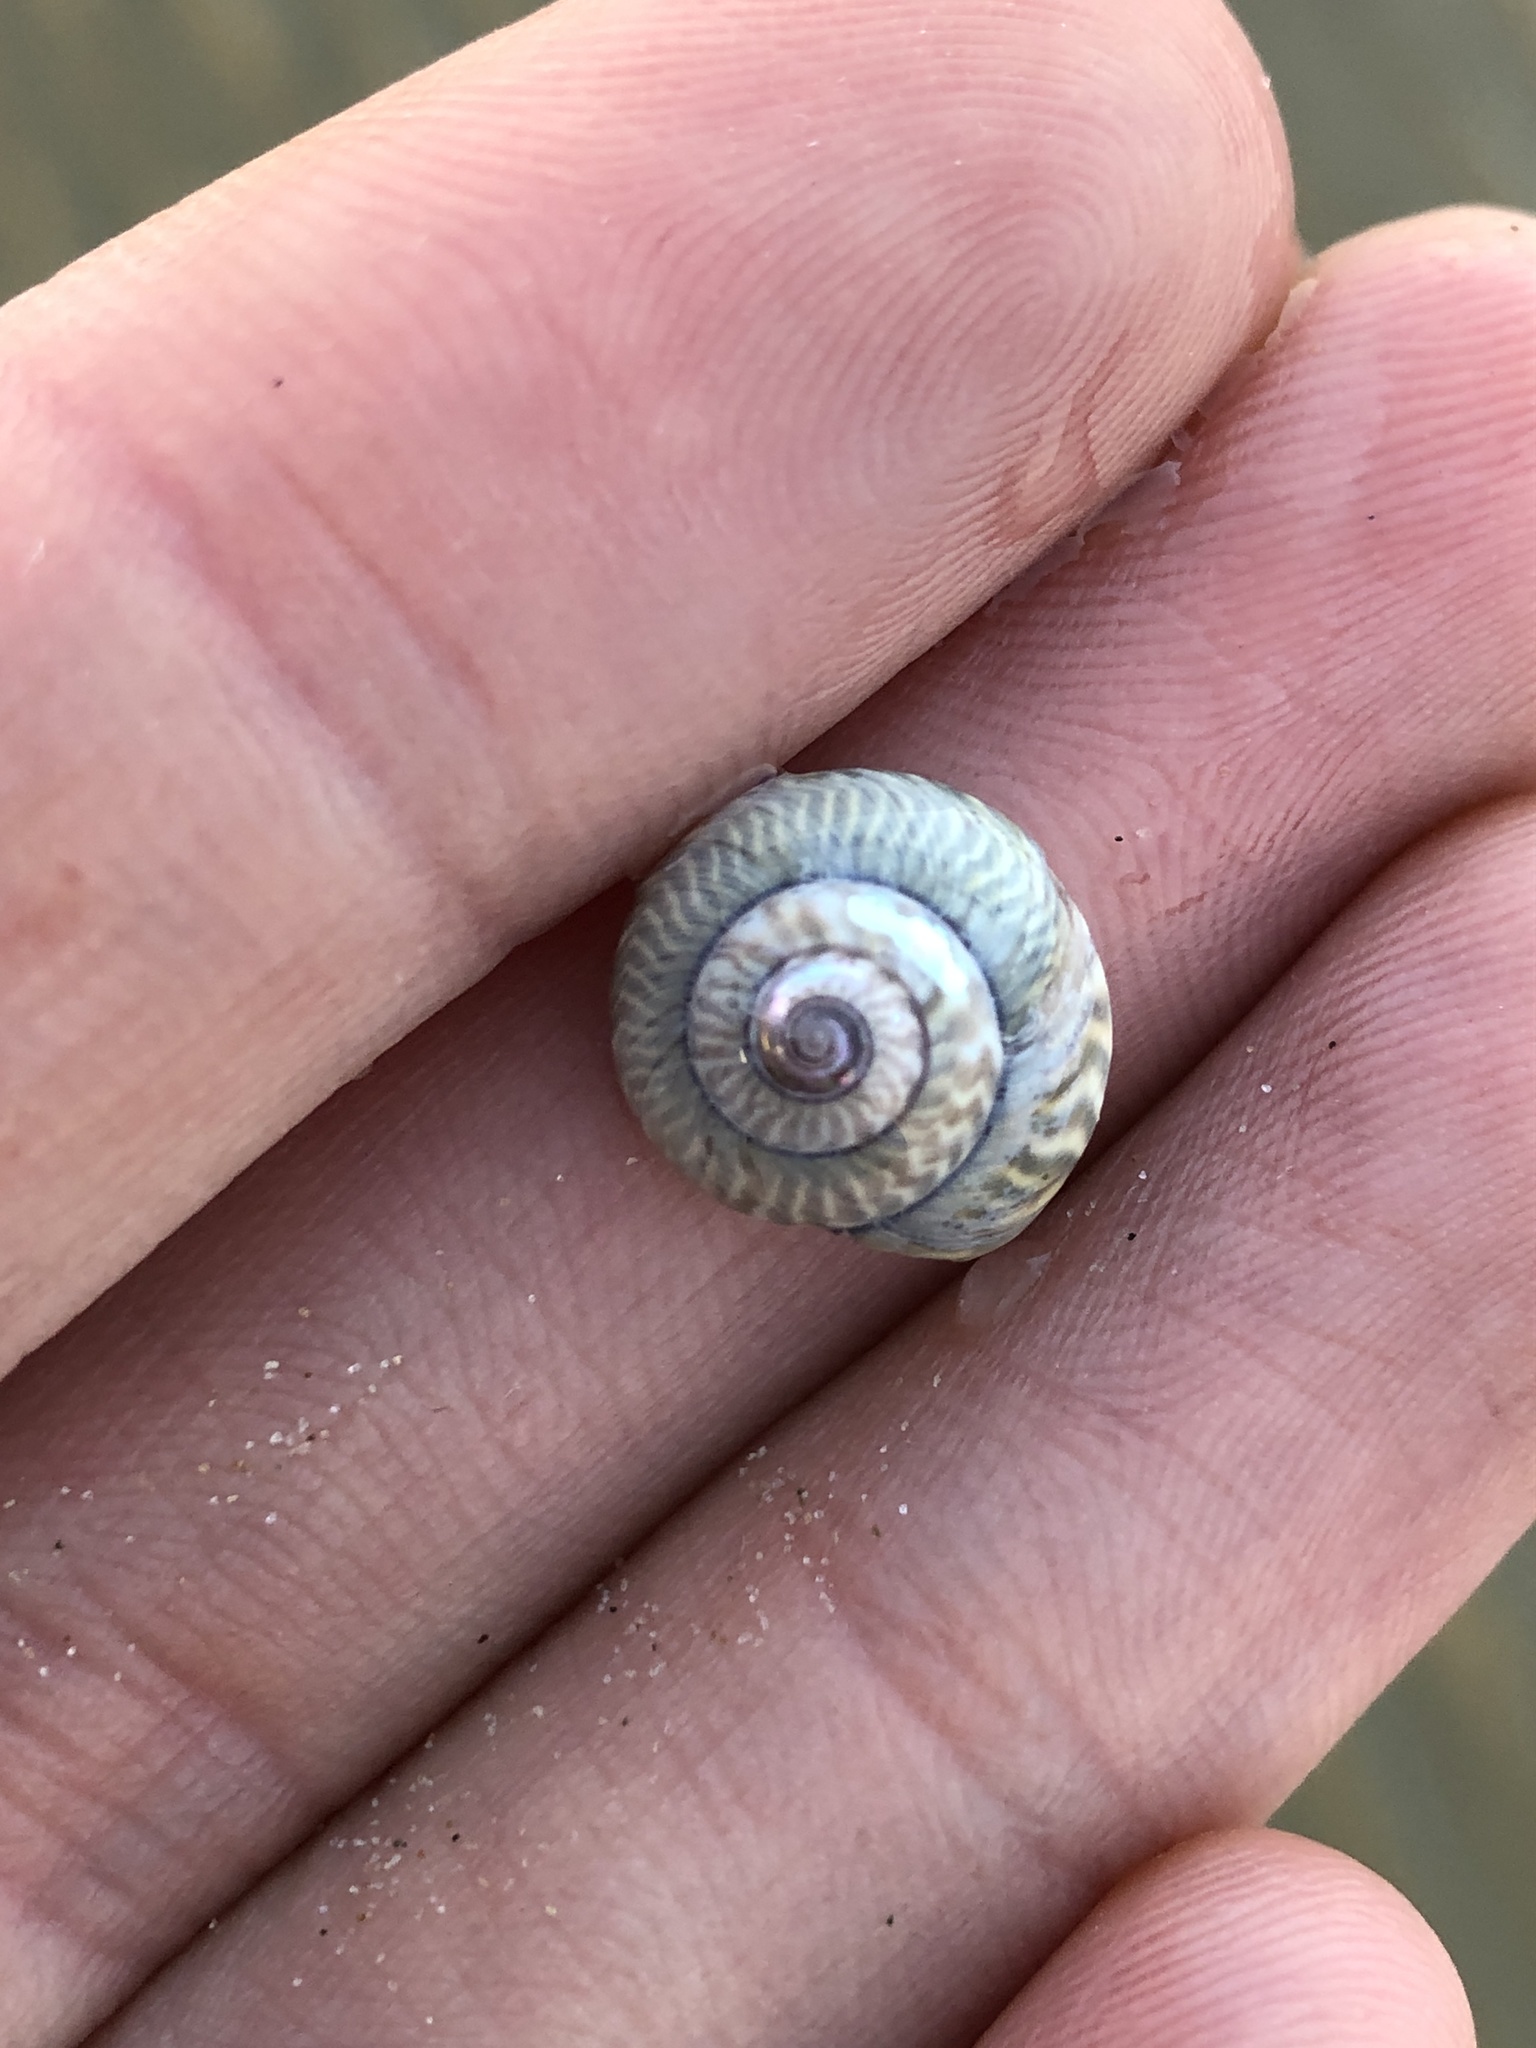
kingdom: Animalia
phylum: Mollusca
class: Gastropoda
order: Trochida
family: Trochidae
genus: Umbonium
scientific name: Umbonium thomasi
